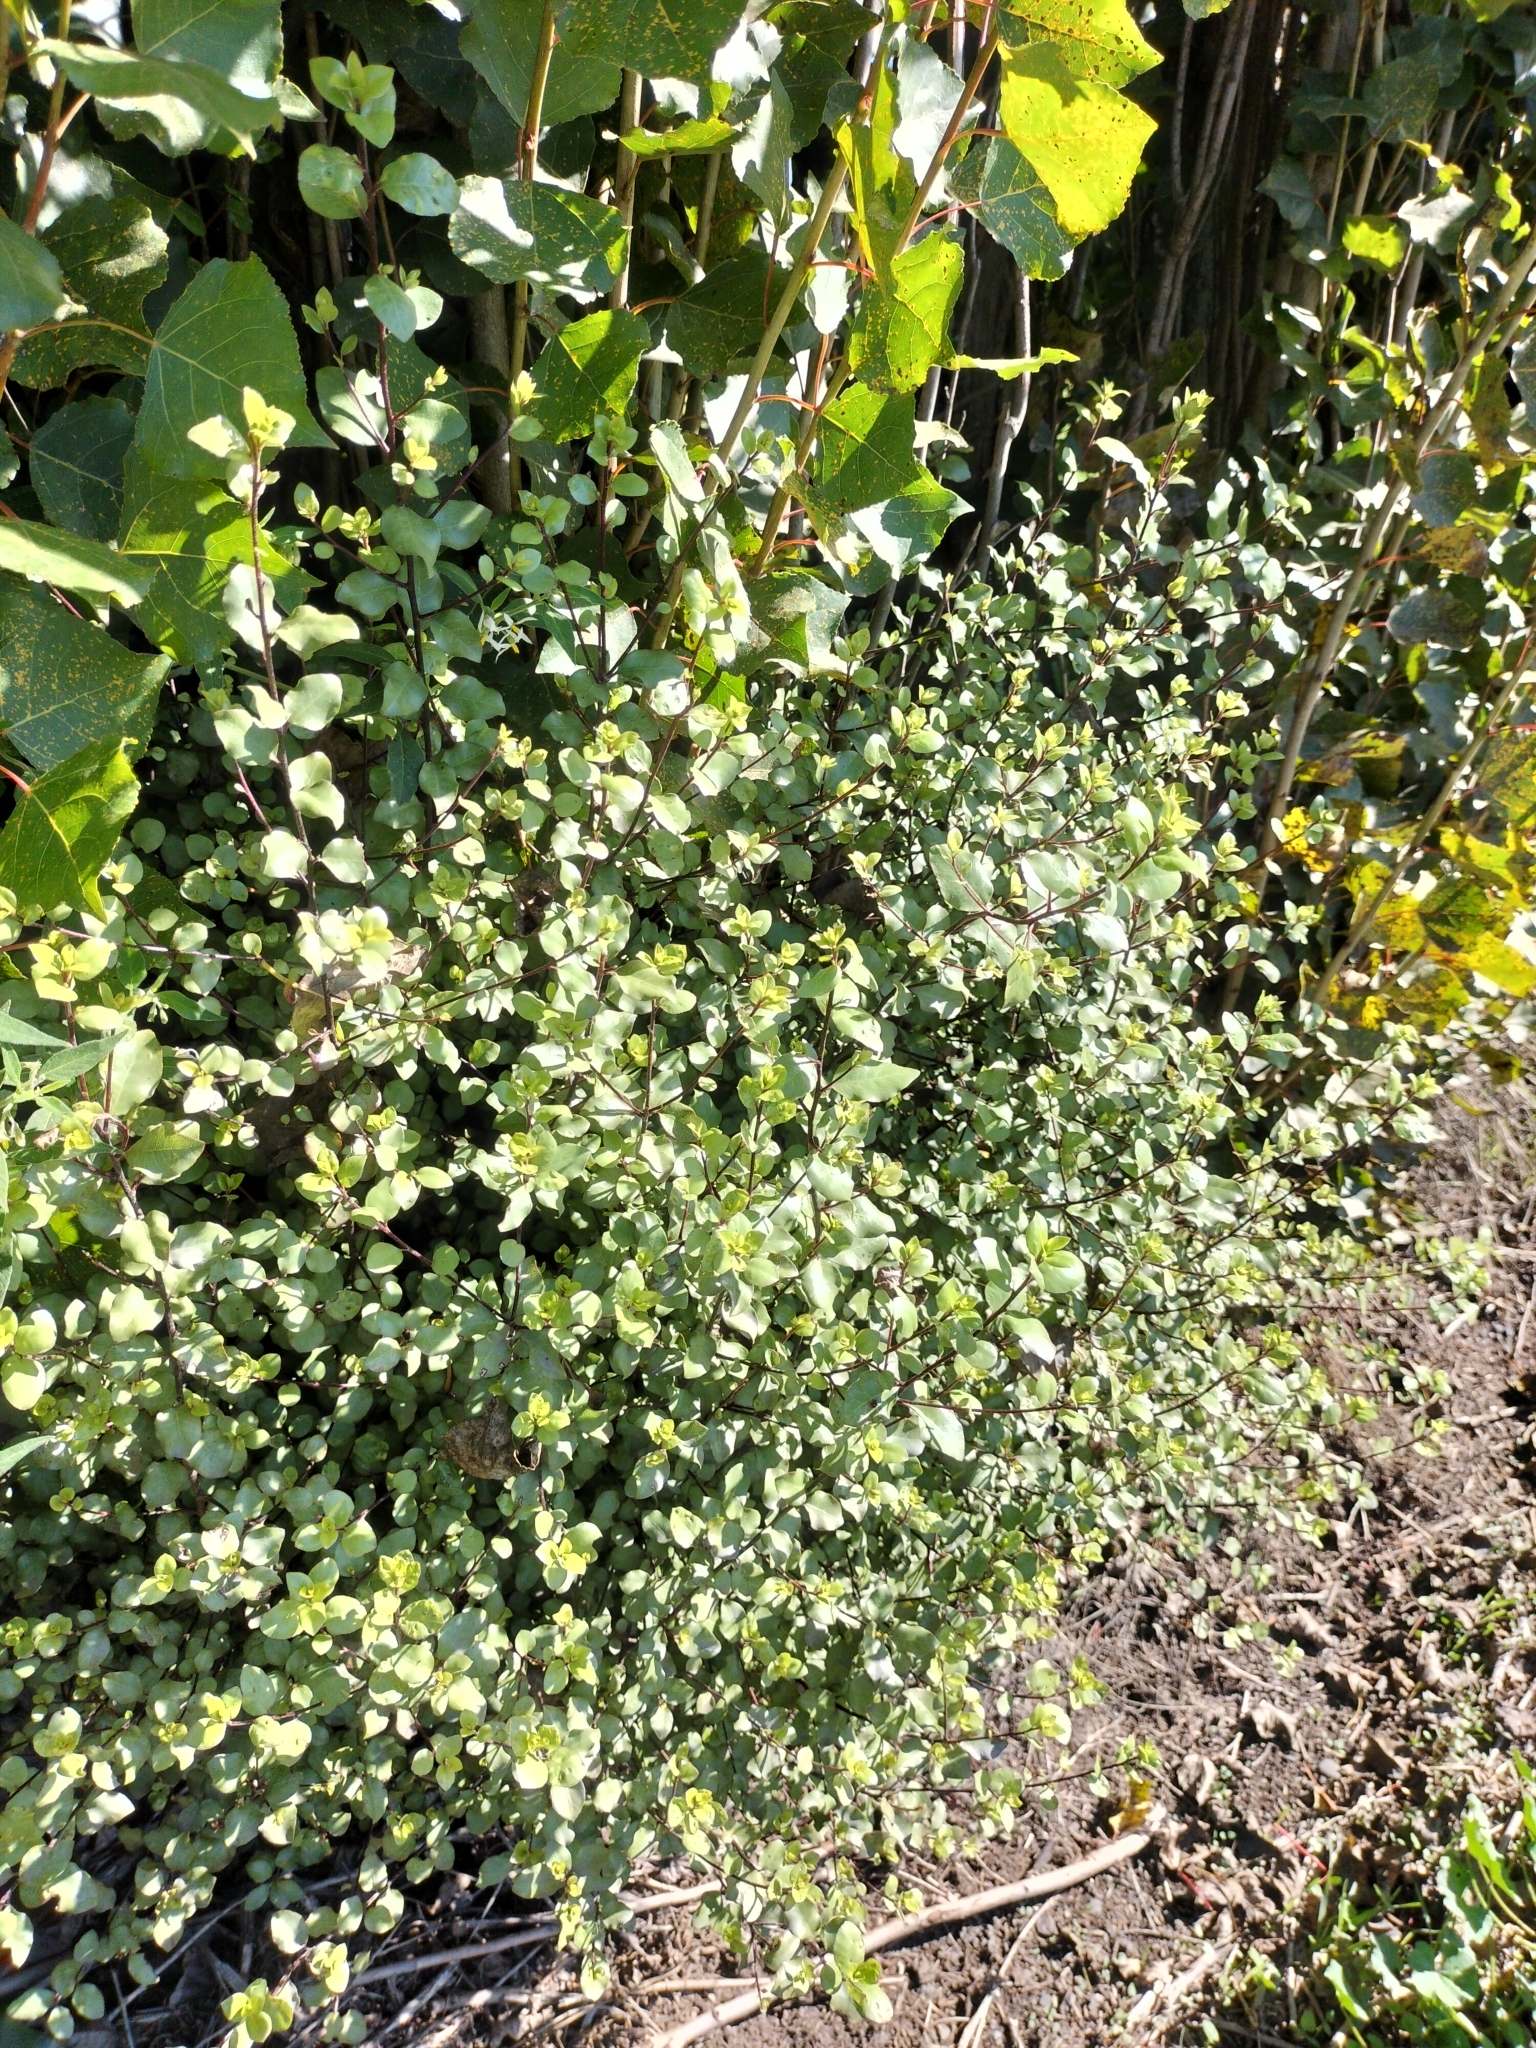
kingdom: Plantae
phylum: Tracheophyta
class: Magnoliopsida
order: Apiales
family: Pittosporaceae
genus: Pittosporum
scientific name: Pittosporum tenuifolium
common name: Kohuhu
